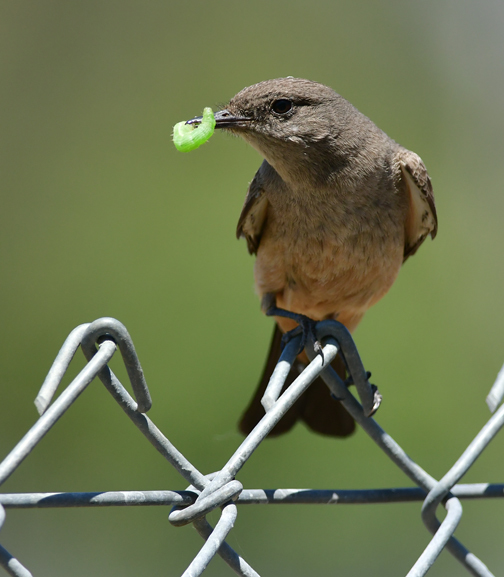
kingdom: Animalia
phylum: Chordata
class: Aves
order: Passeriformes
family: Tyrannidae
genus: Sayornis
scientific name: Sayornis saya
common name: Say's phoebe
